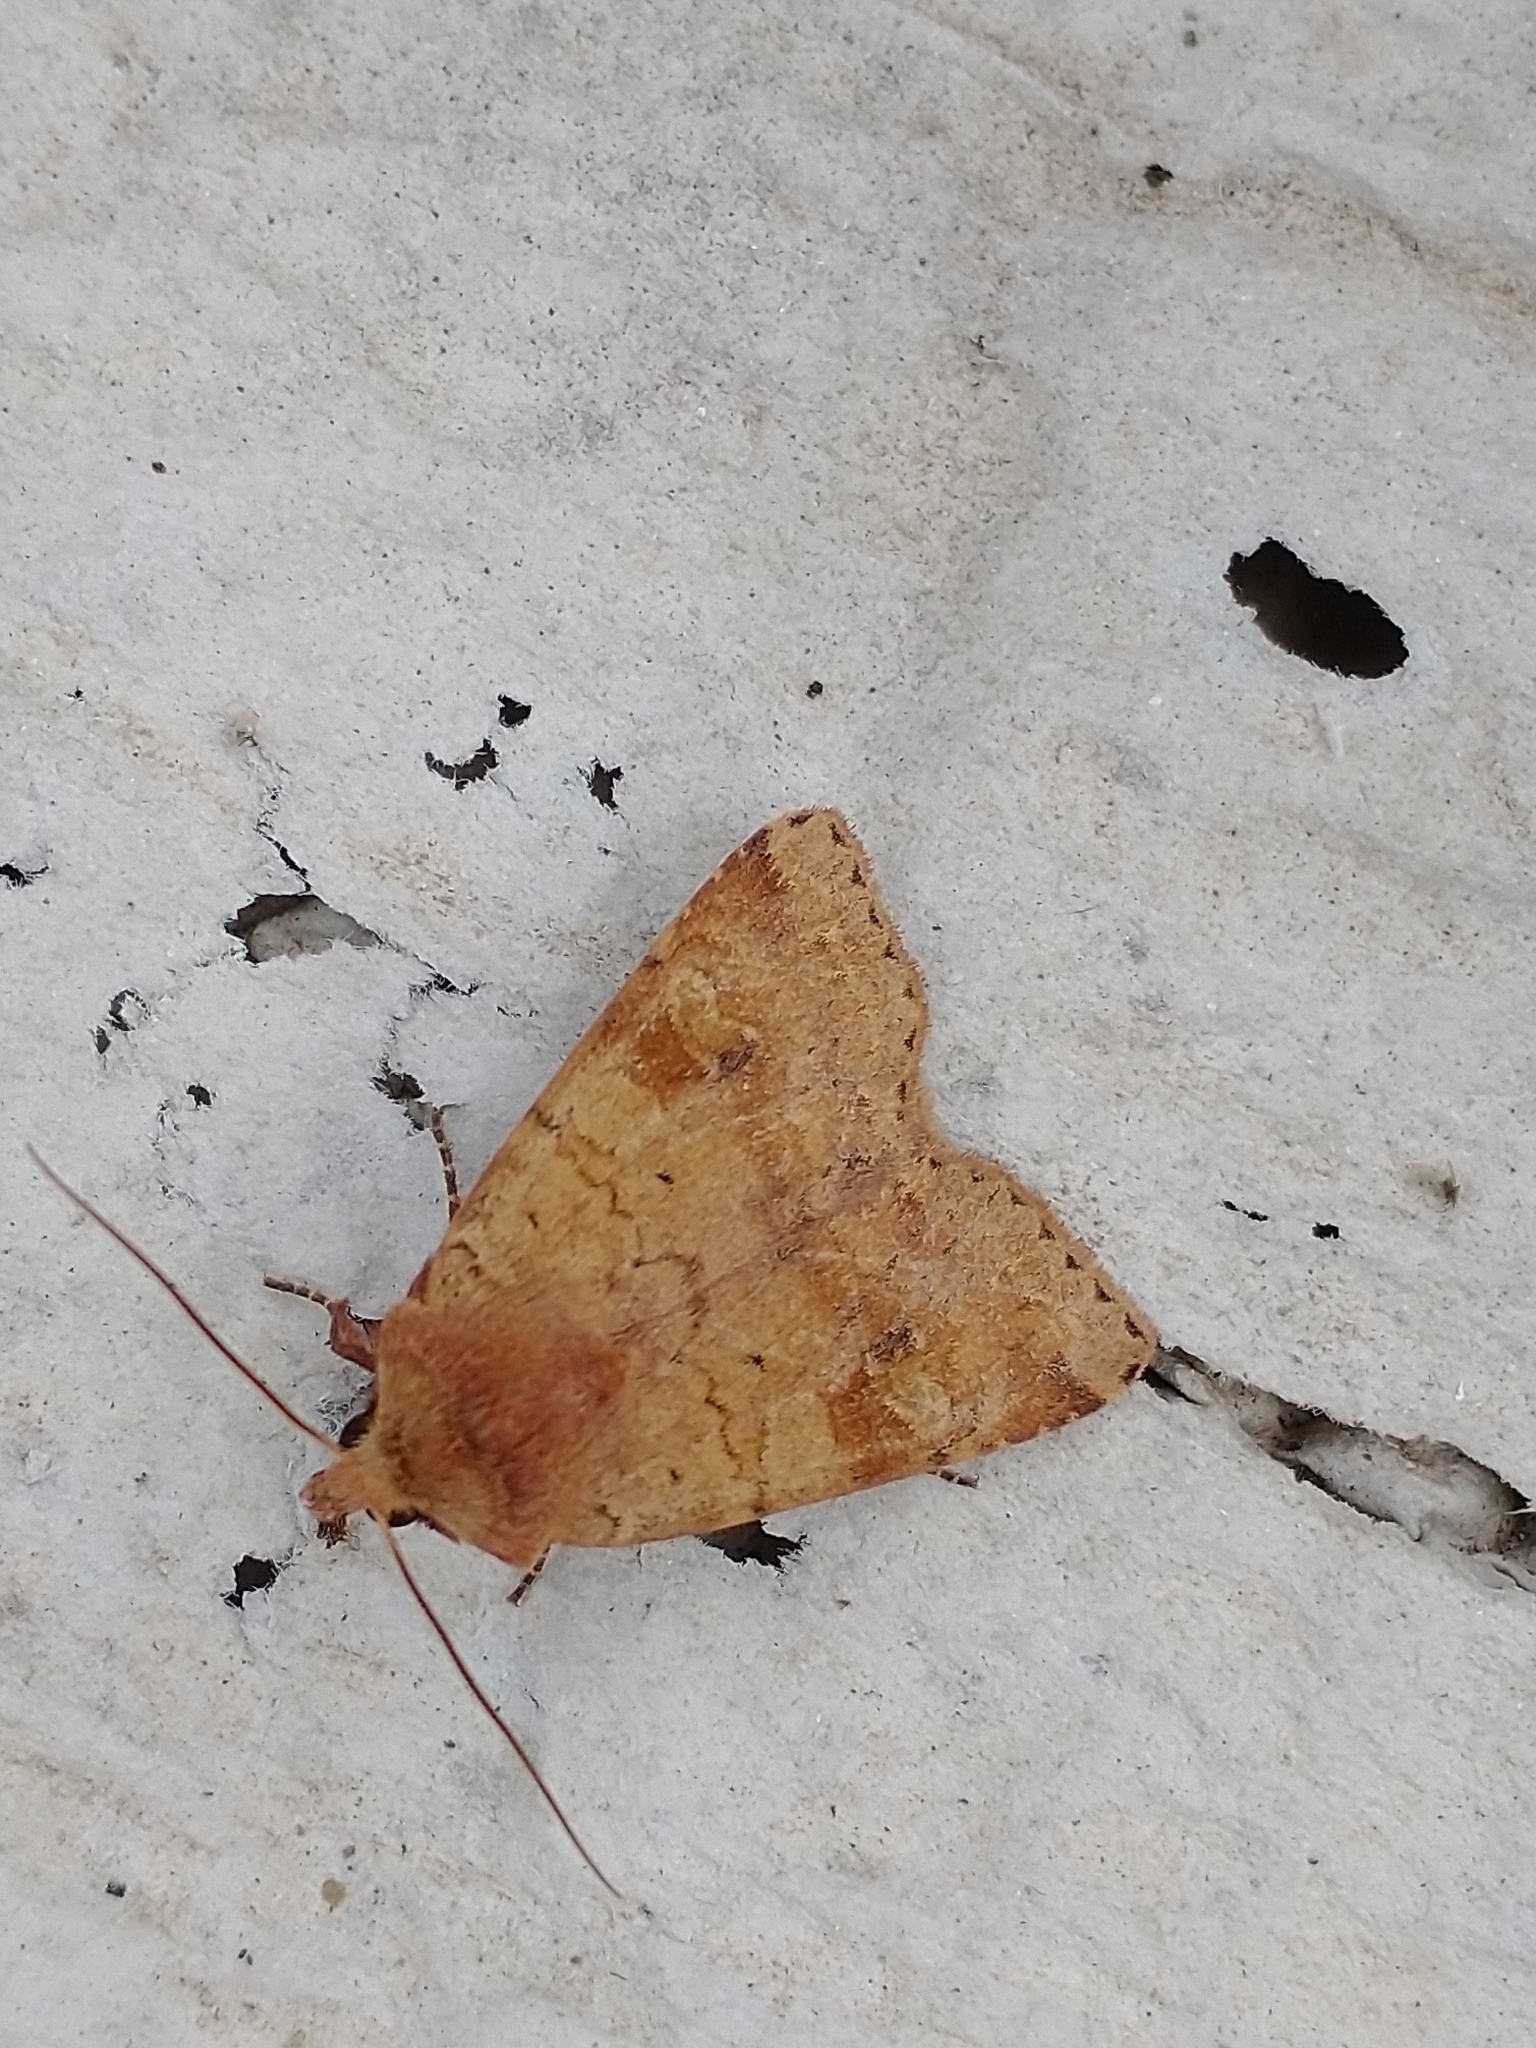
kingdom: Animalia
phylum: Arthropoda
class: Insecta
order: Lepidoptera
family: Noctuidae
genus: Diarsia
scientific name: Diarsia mendica
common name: Ingrailed clay
